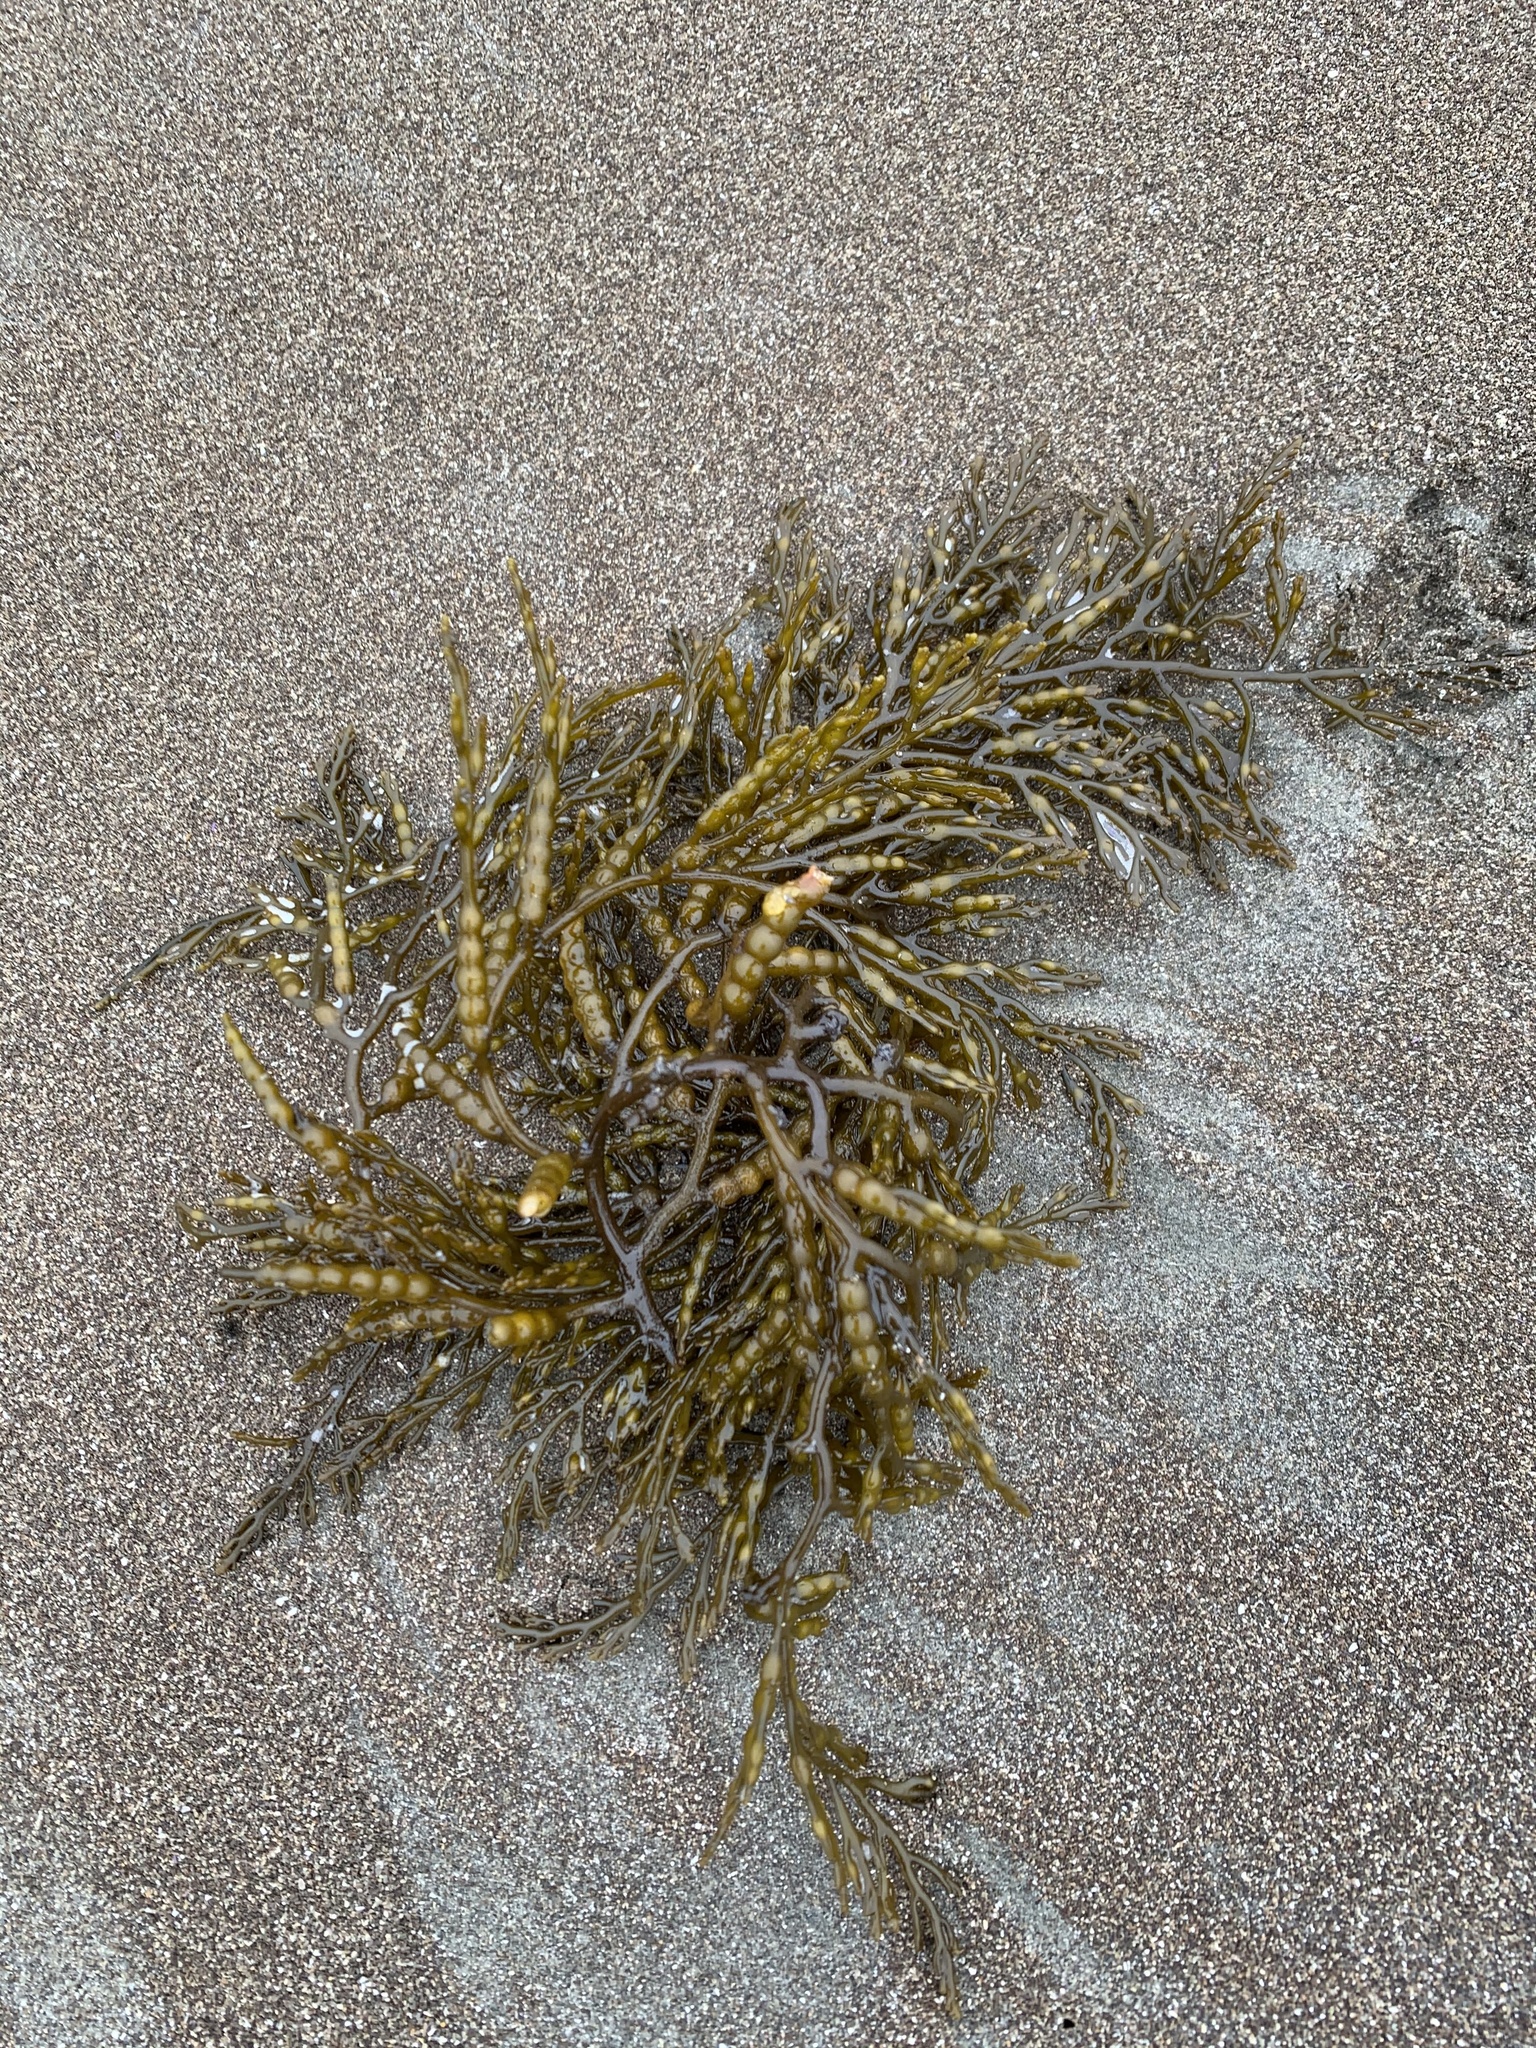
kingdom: Chromista
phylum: Ochrophyta
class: Phaeophyceae
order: Fucales
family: Sargassaceae
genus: Stephanocystis
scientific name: Stephanocystis
